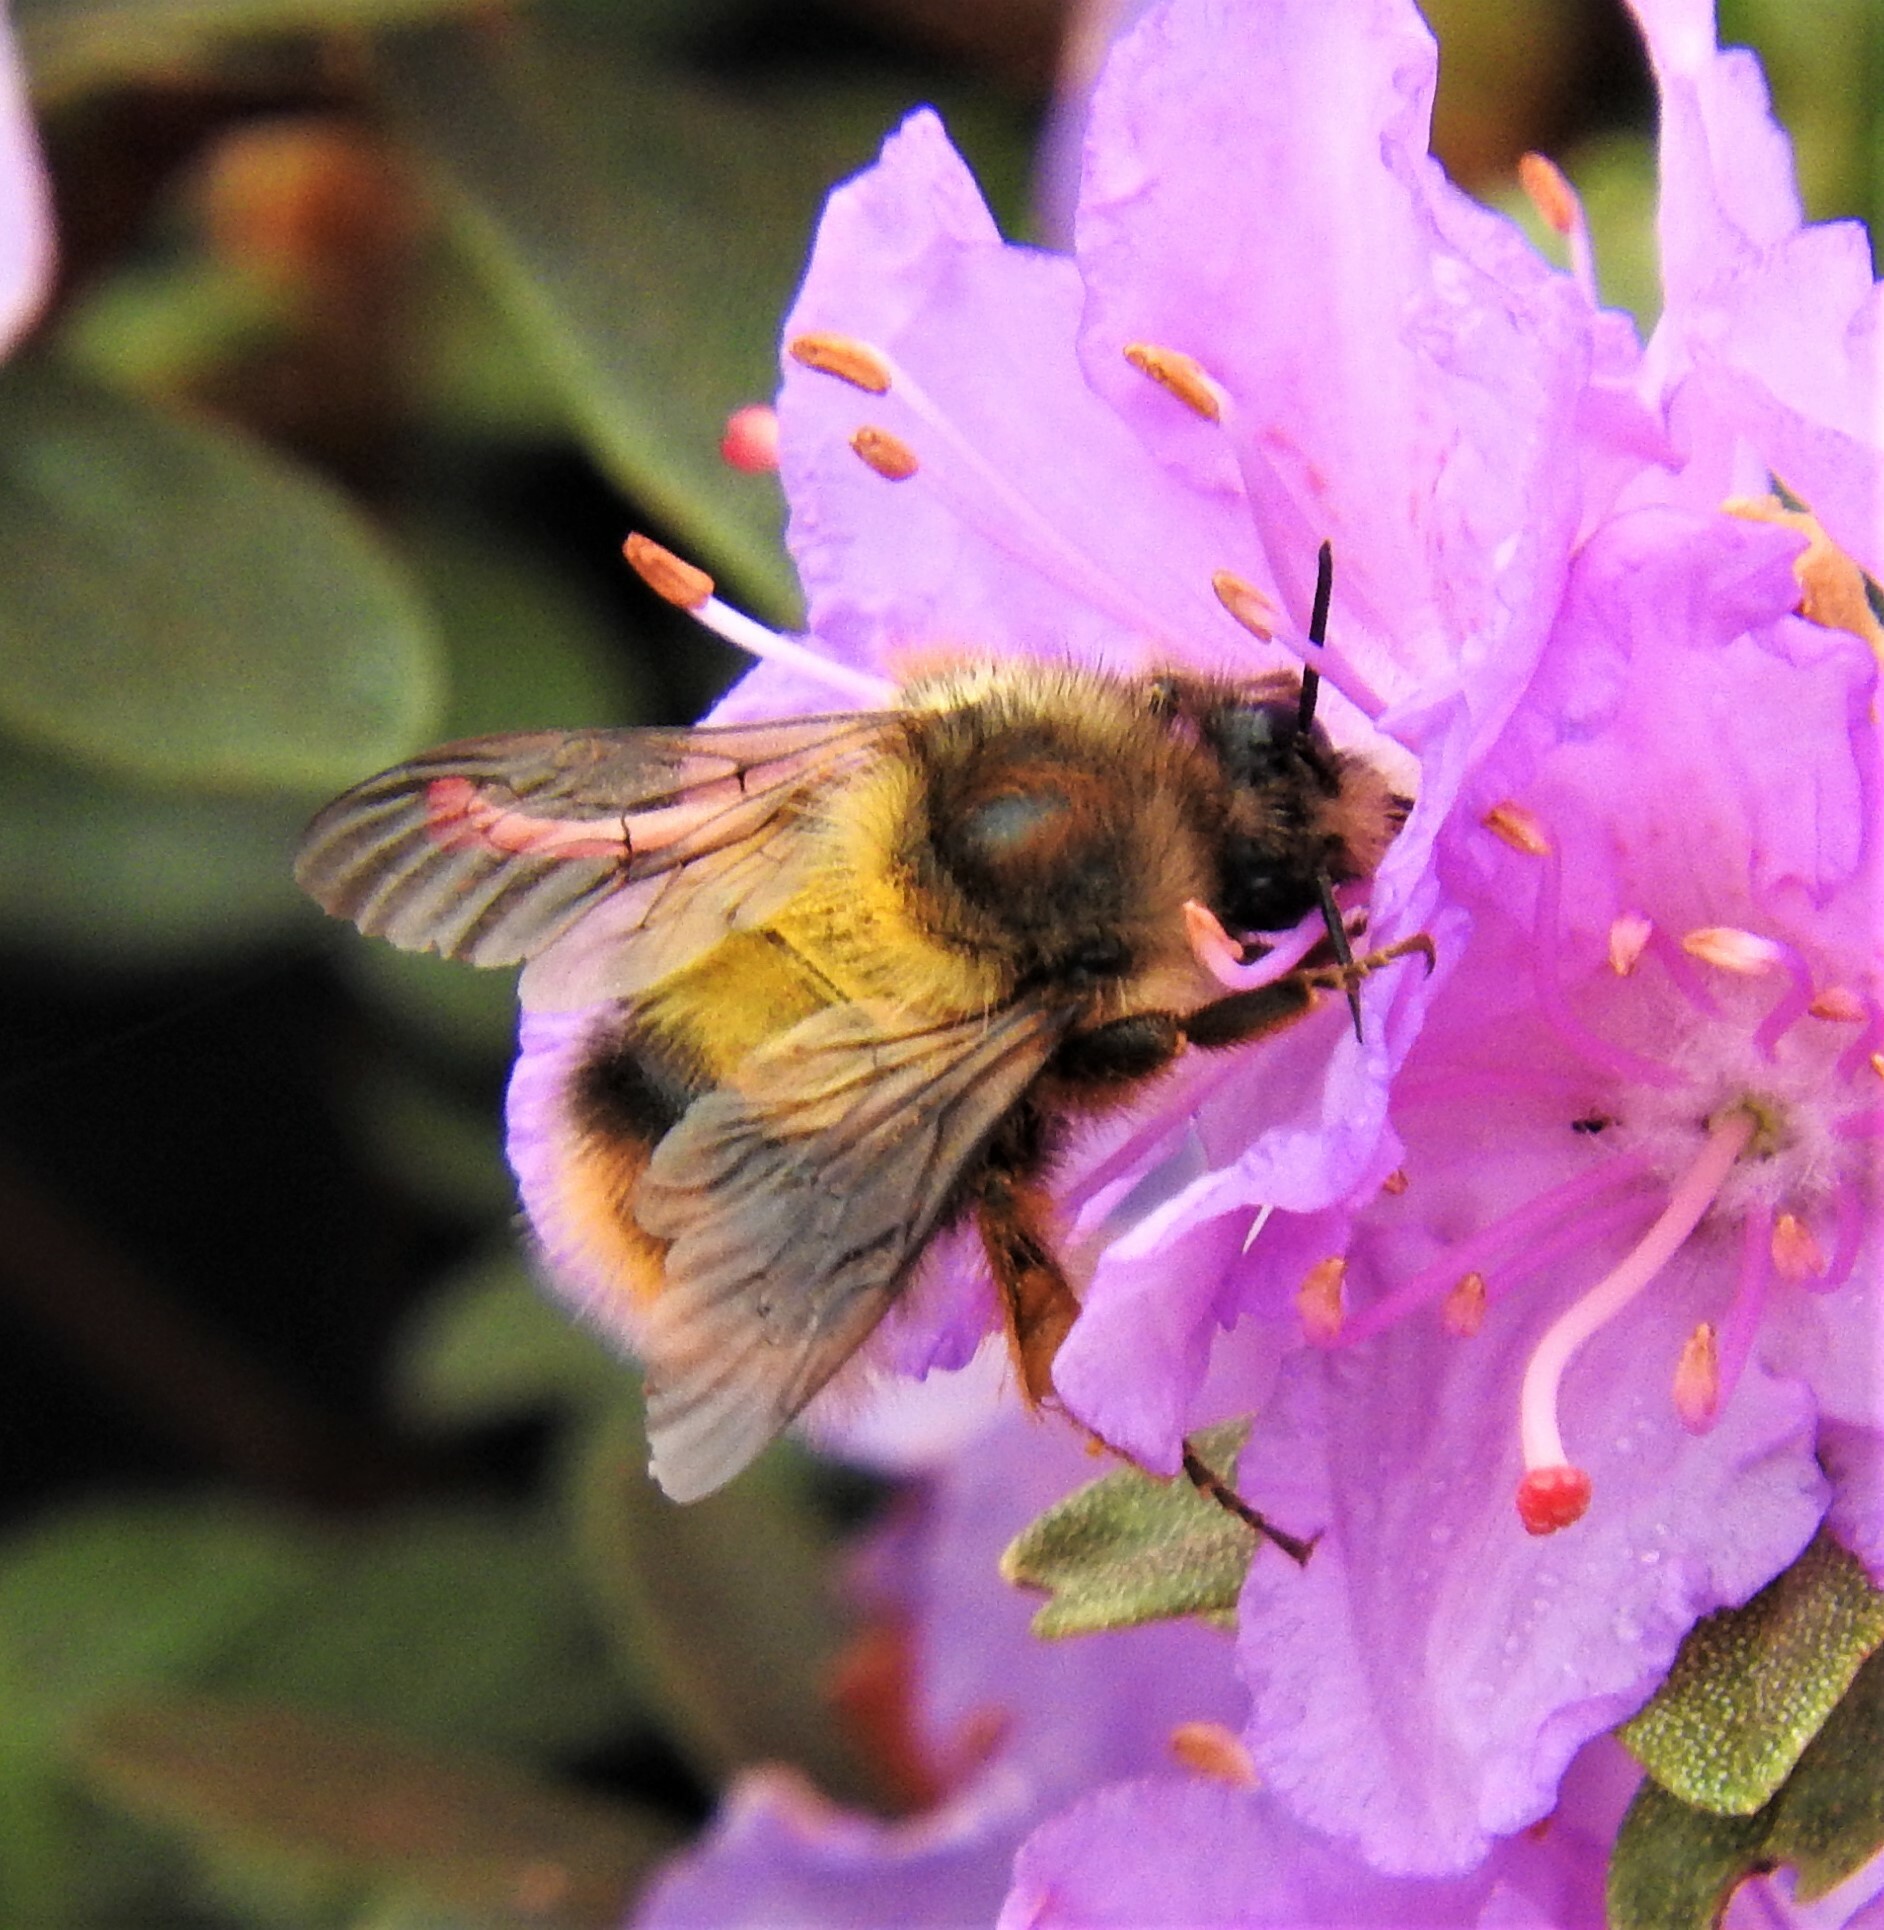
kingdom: Animalia
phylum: Arthropoda
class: Insecta
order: Hymenoptera
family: Apidae
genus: Bombus
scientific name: Bombus mixtus
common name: Fuzzy-horned bumble bee
